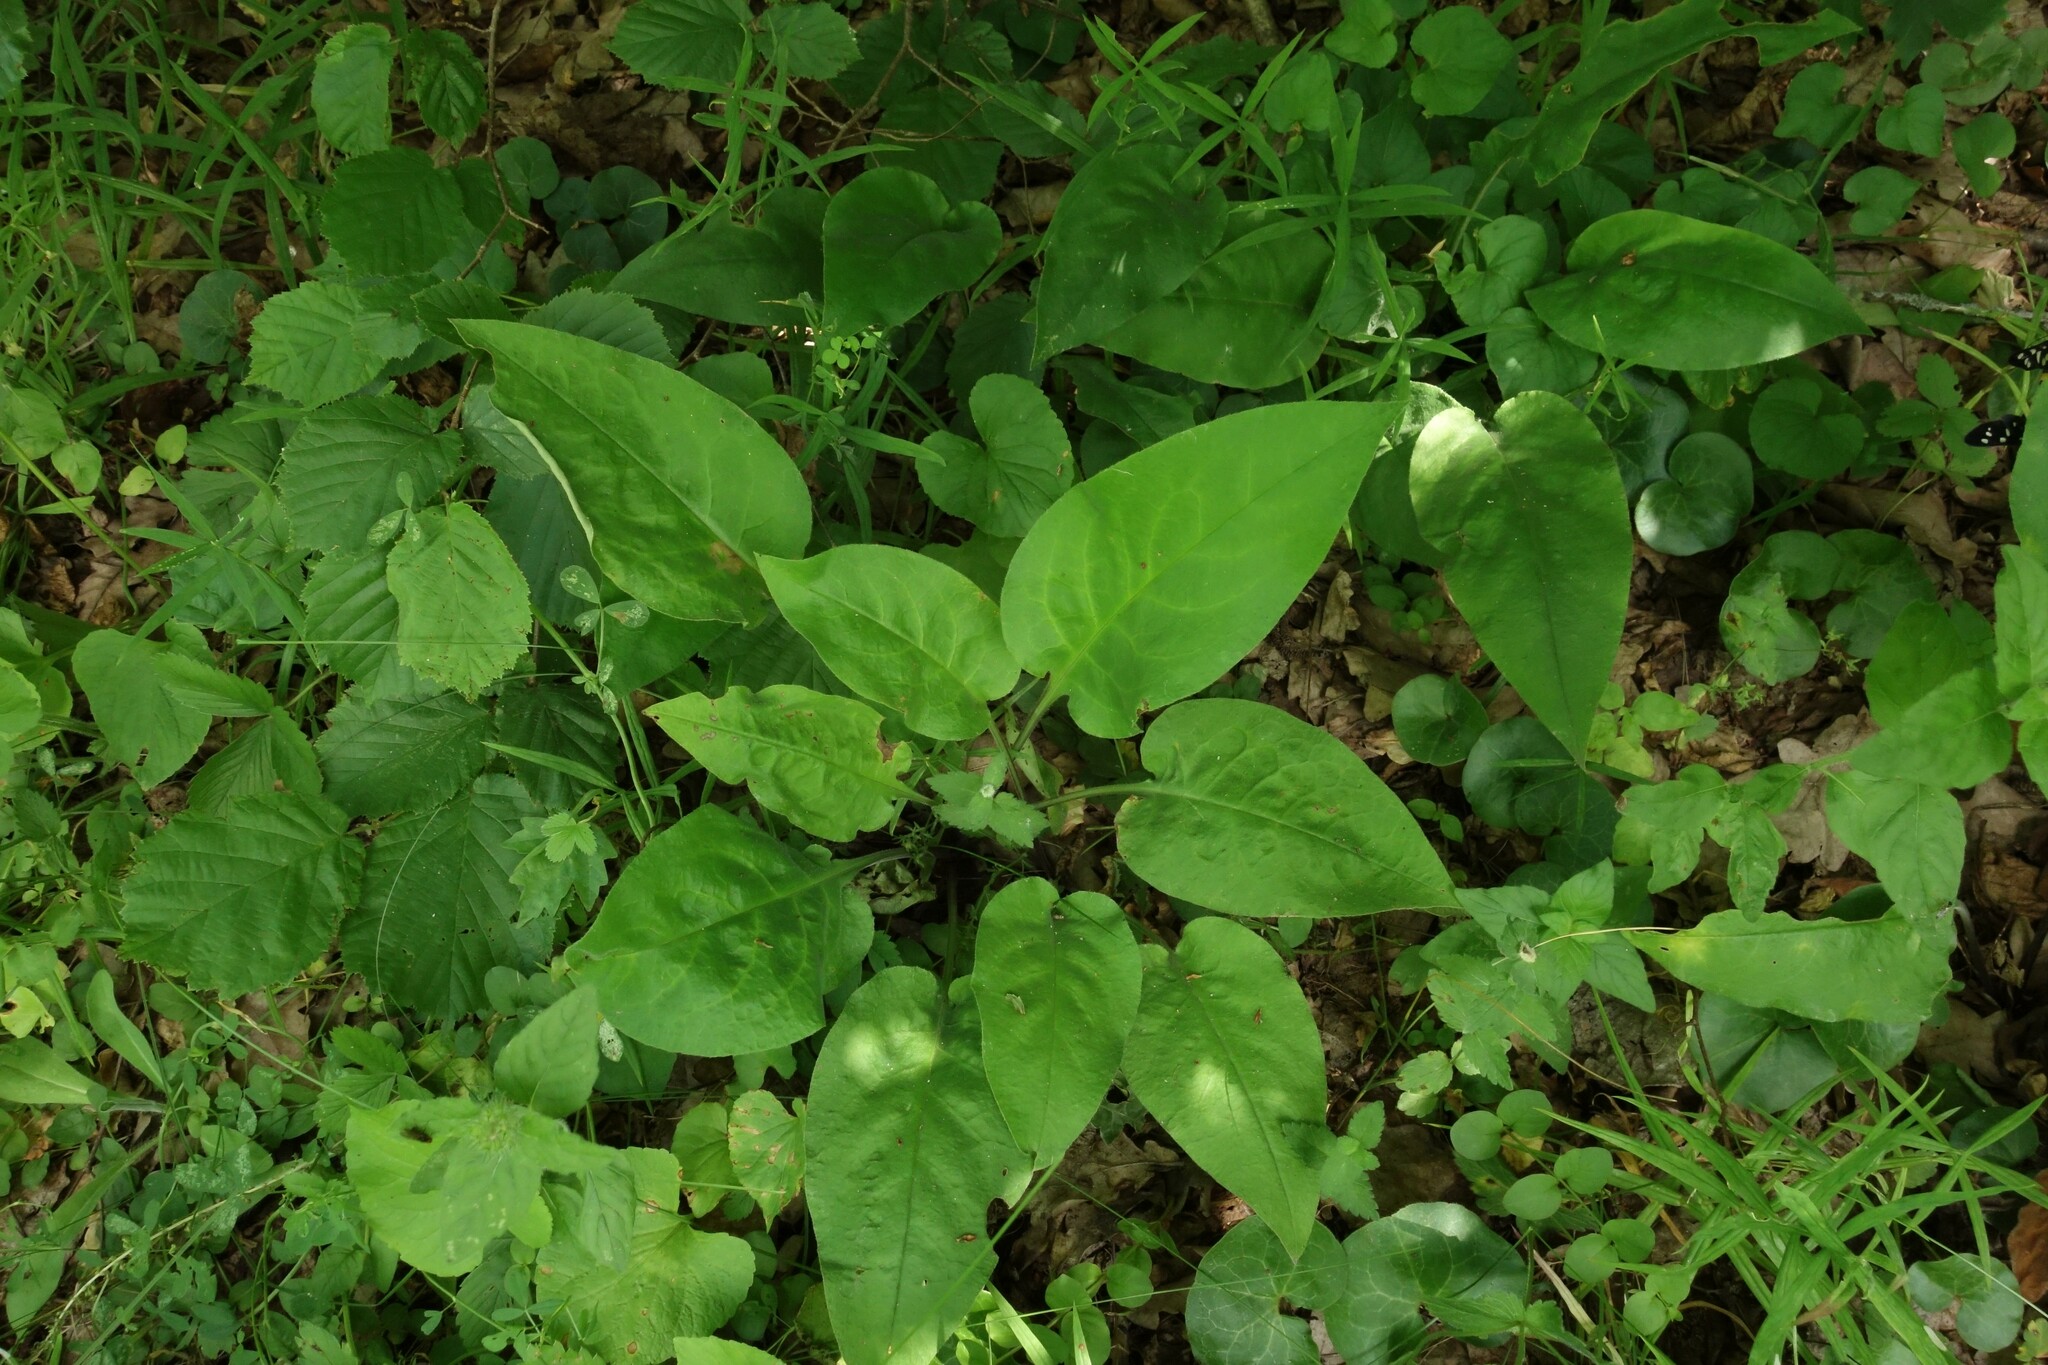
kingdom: Plantae
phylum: Tracheophyta
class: Magnoliopsida
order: Boraginales
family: Boraginaceae
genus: Pulmonaria
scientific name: Pulmonaria obscura
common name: Suffolk lungwort
